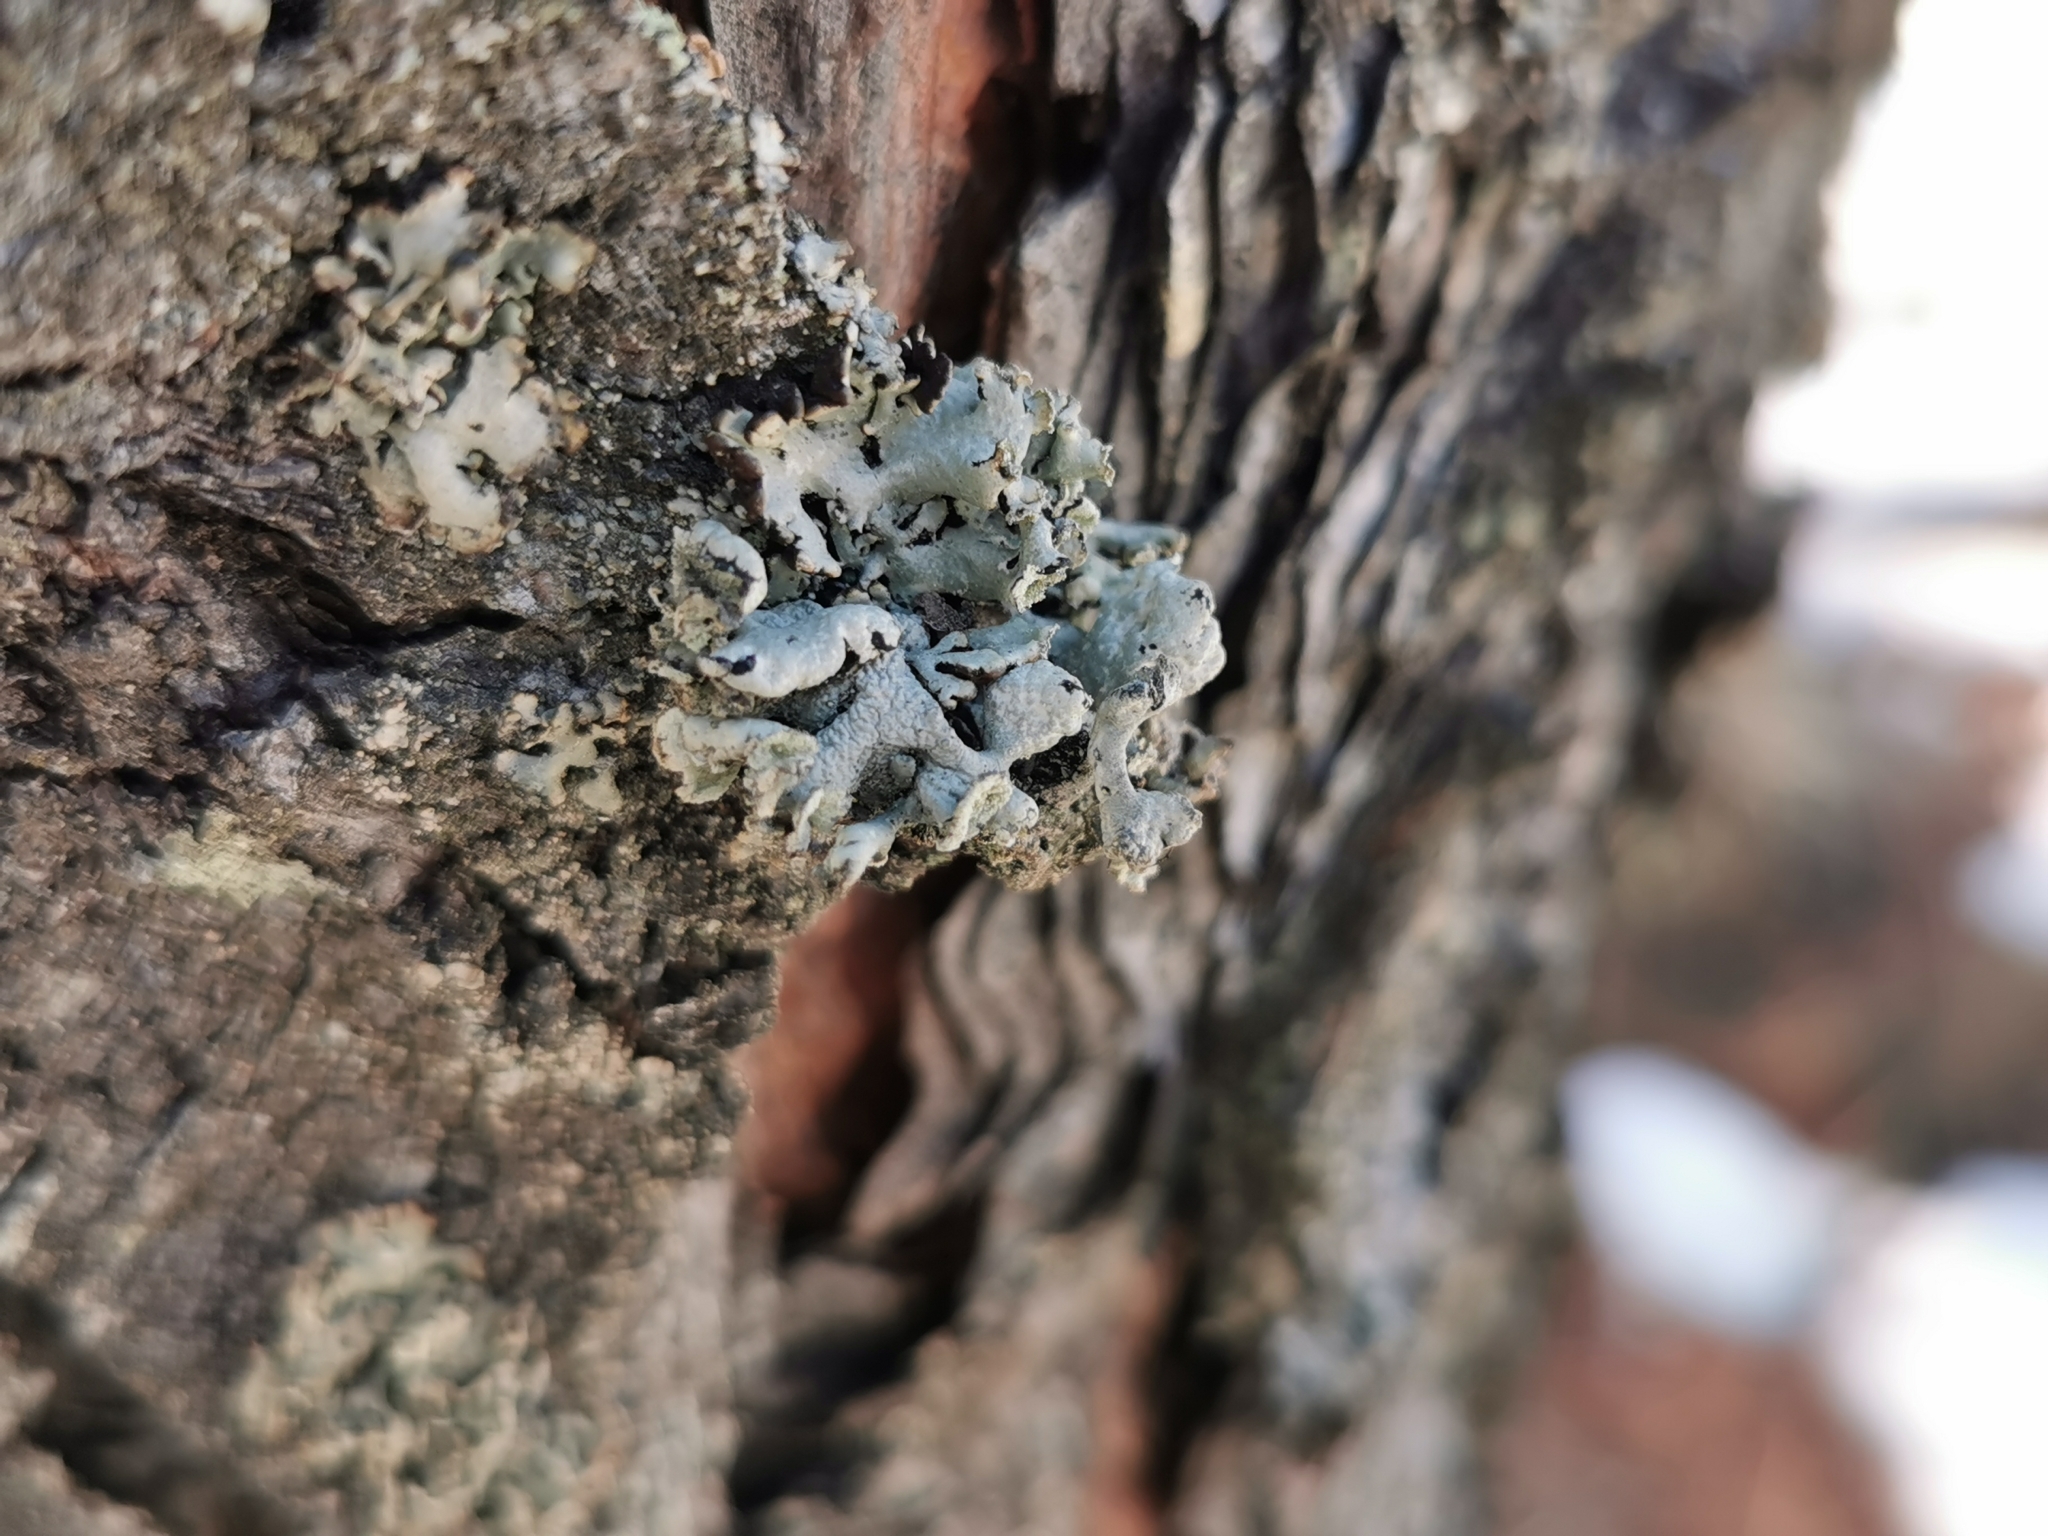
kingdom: Fungi
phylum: Ascomycota
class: Lecanoromycetes
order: Caliciales
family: Physciaceae
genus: Physcia
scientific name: Physcia adscendens
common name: Hooded rosette lichen
